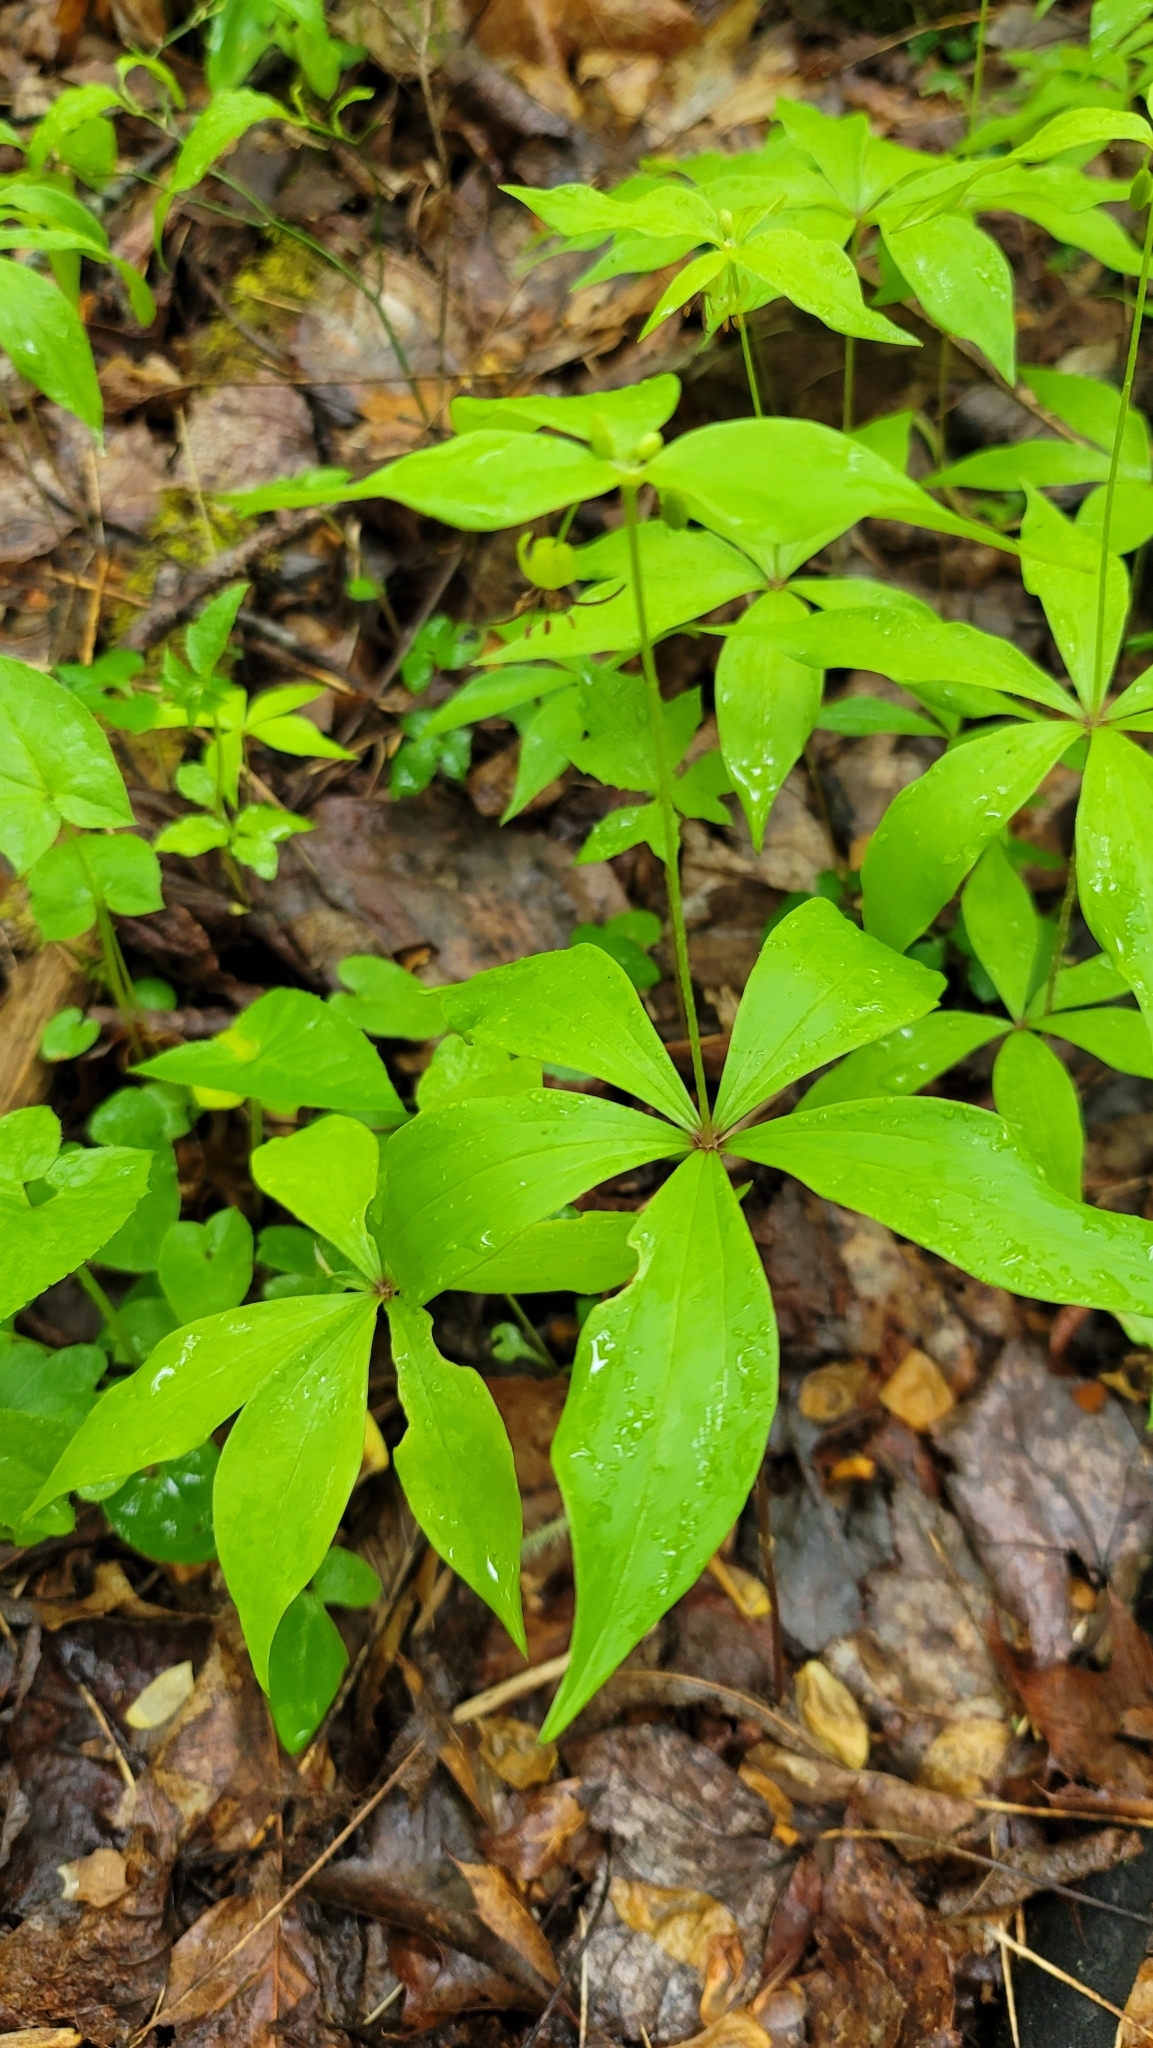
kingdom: Plantae
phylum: Tracheophyta
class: Liliopsida
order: Liliales
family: Liliaceae
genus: Medeola
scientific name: Medeola virginiana
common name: Indian cucumber-root
